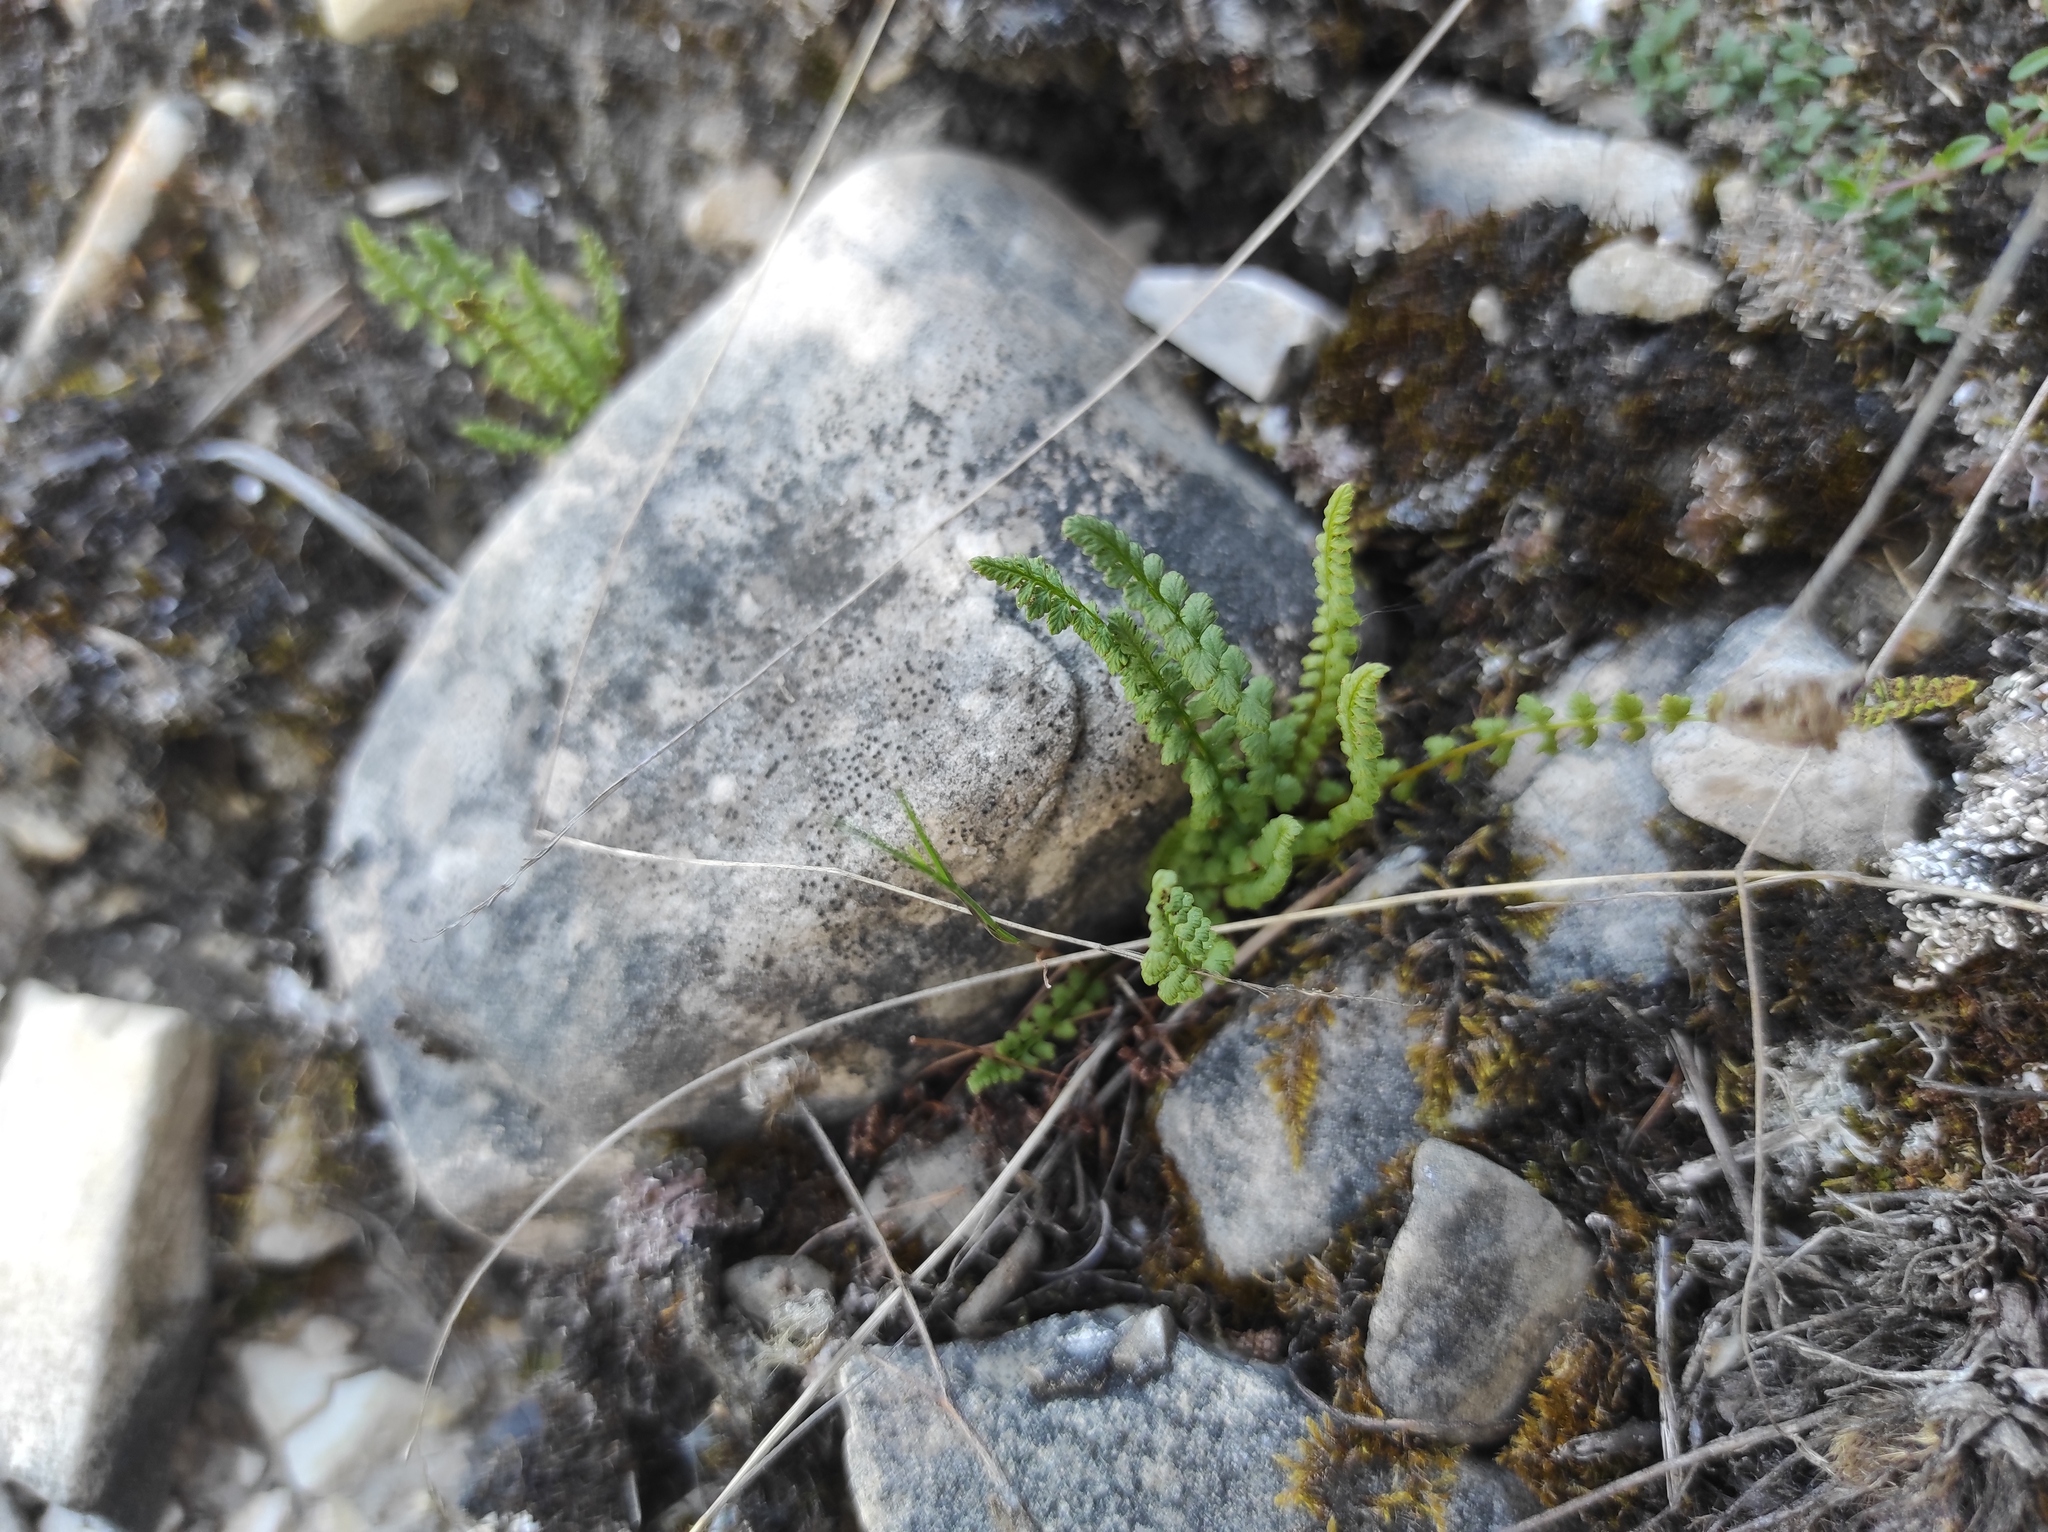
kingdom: Plantae
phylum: Tracheophyta
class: Polypodiopsida
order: Polypodiales
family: Woodsiaceae
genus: Woodsia
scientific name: Woodsia glabella
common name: Smooth woodsia
